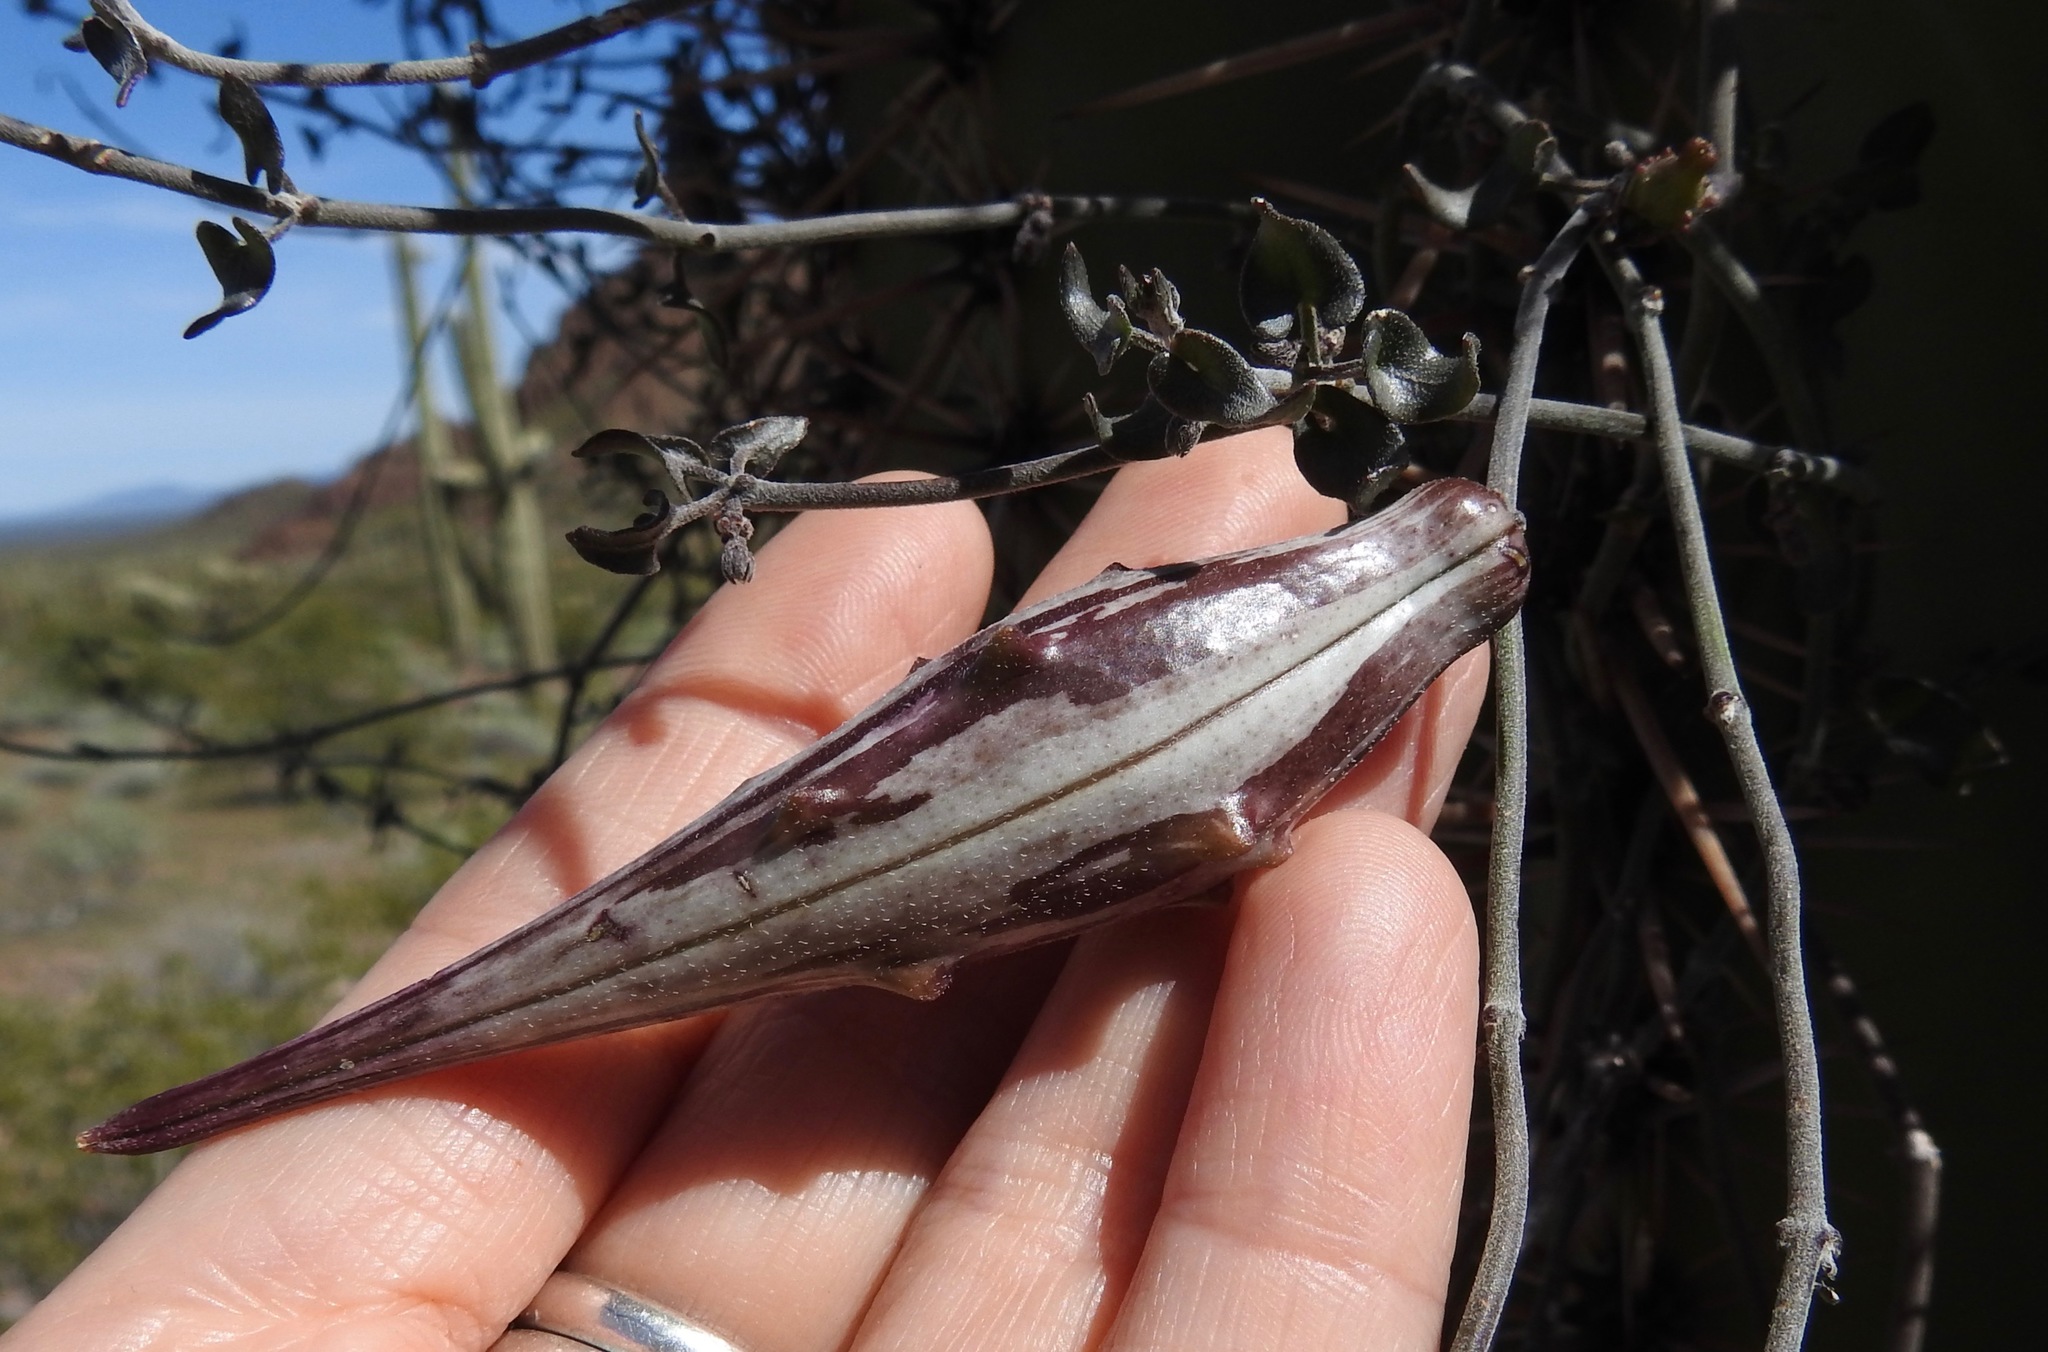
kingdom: Plantae
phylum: Tracheophyta
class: Magnoliopsida
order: Gentianales
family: Apocynaceae
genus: Matelea
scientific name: Matelea parvifolia
